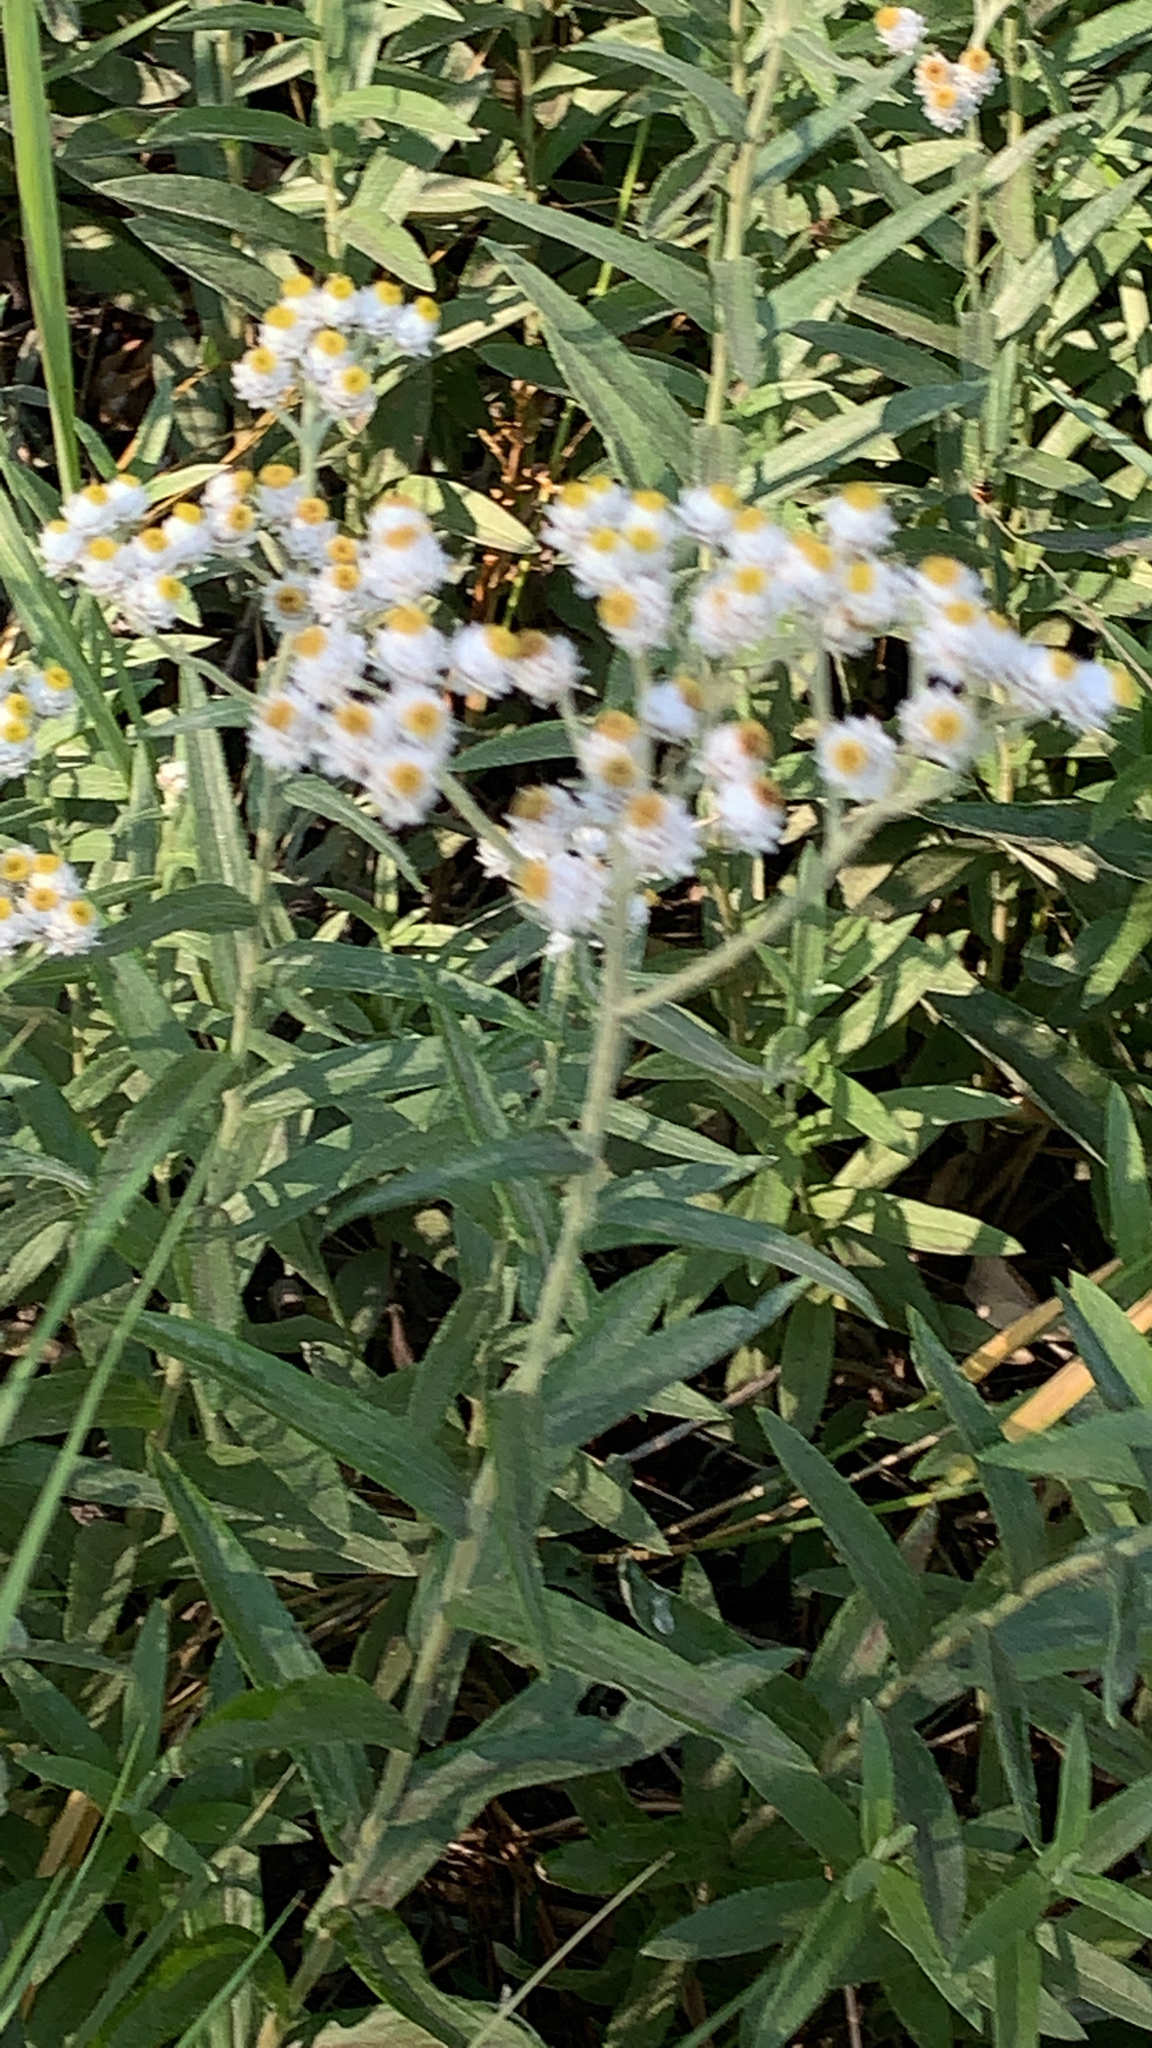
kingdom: Plantae
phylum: Tracheophyta
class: Magnoliopsida
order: Asterales
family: Asteraceae
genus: Anaphalis
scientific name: Anaphalis margaritacea
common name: Pearly everlasting
